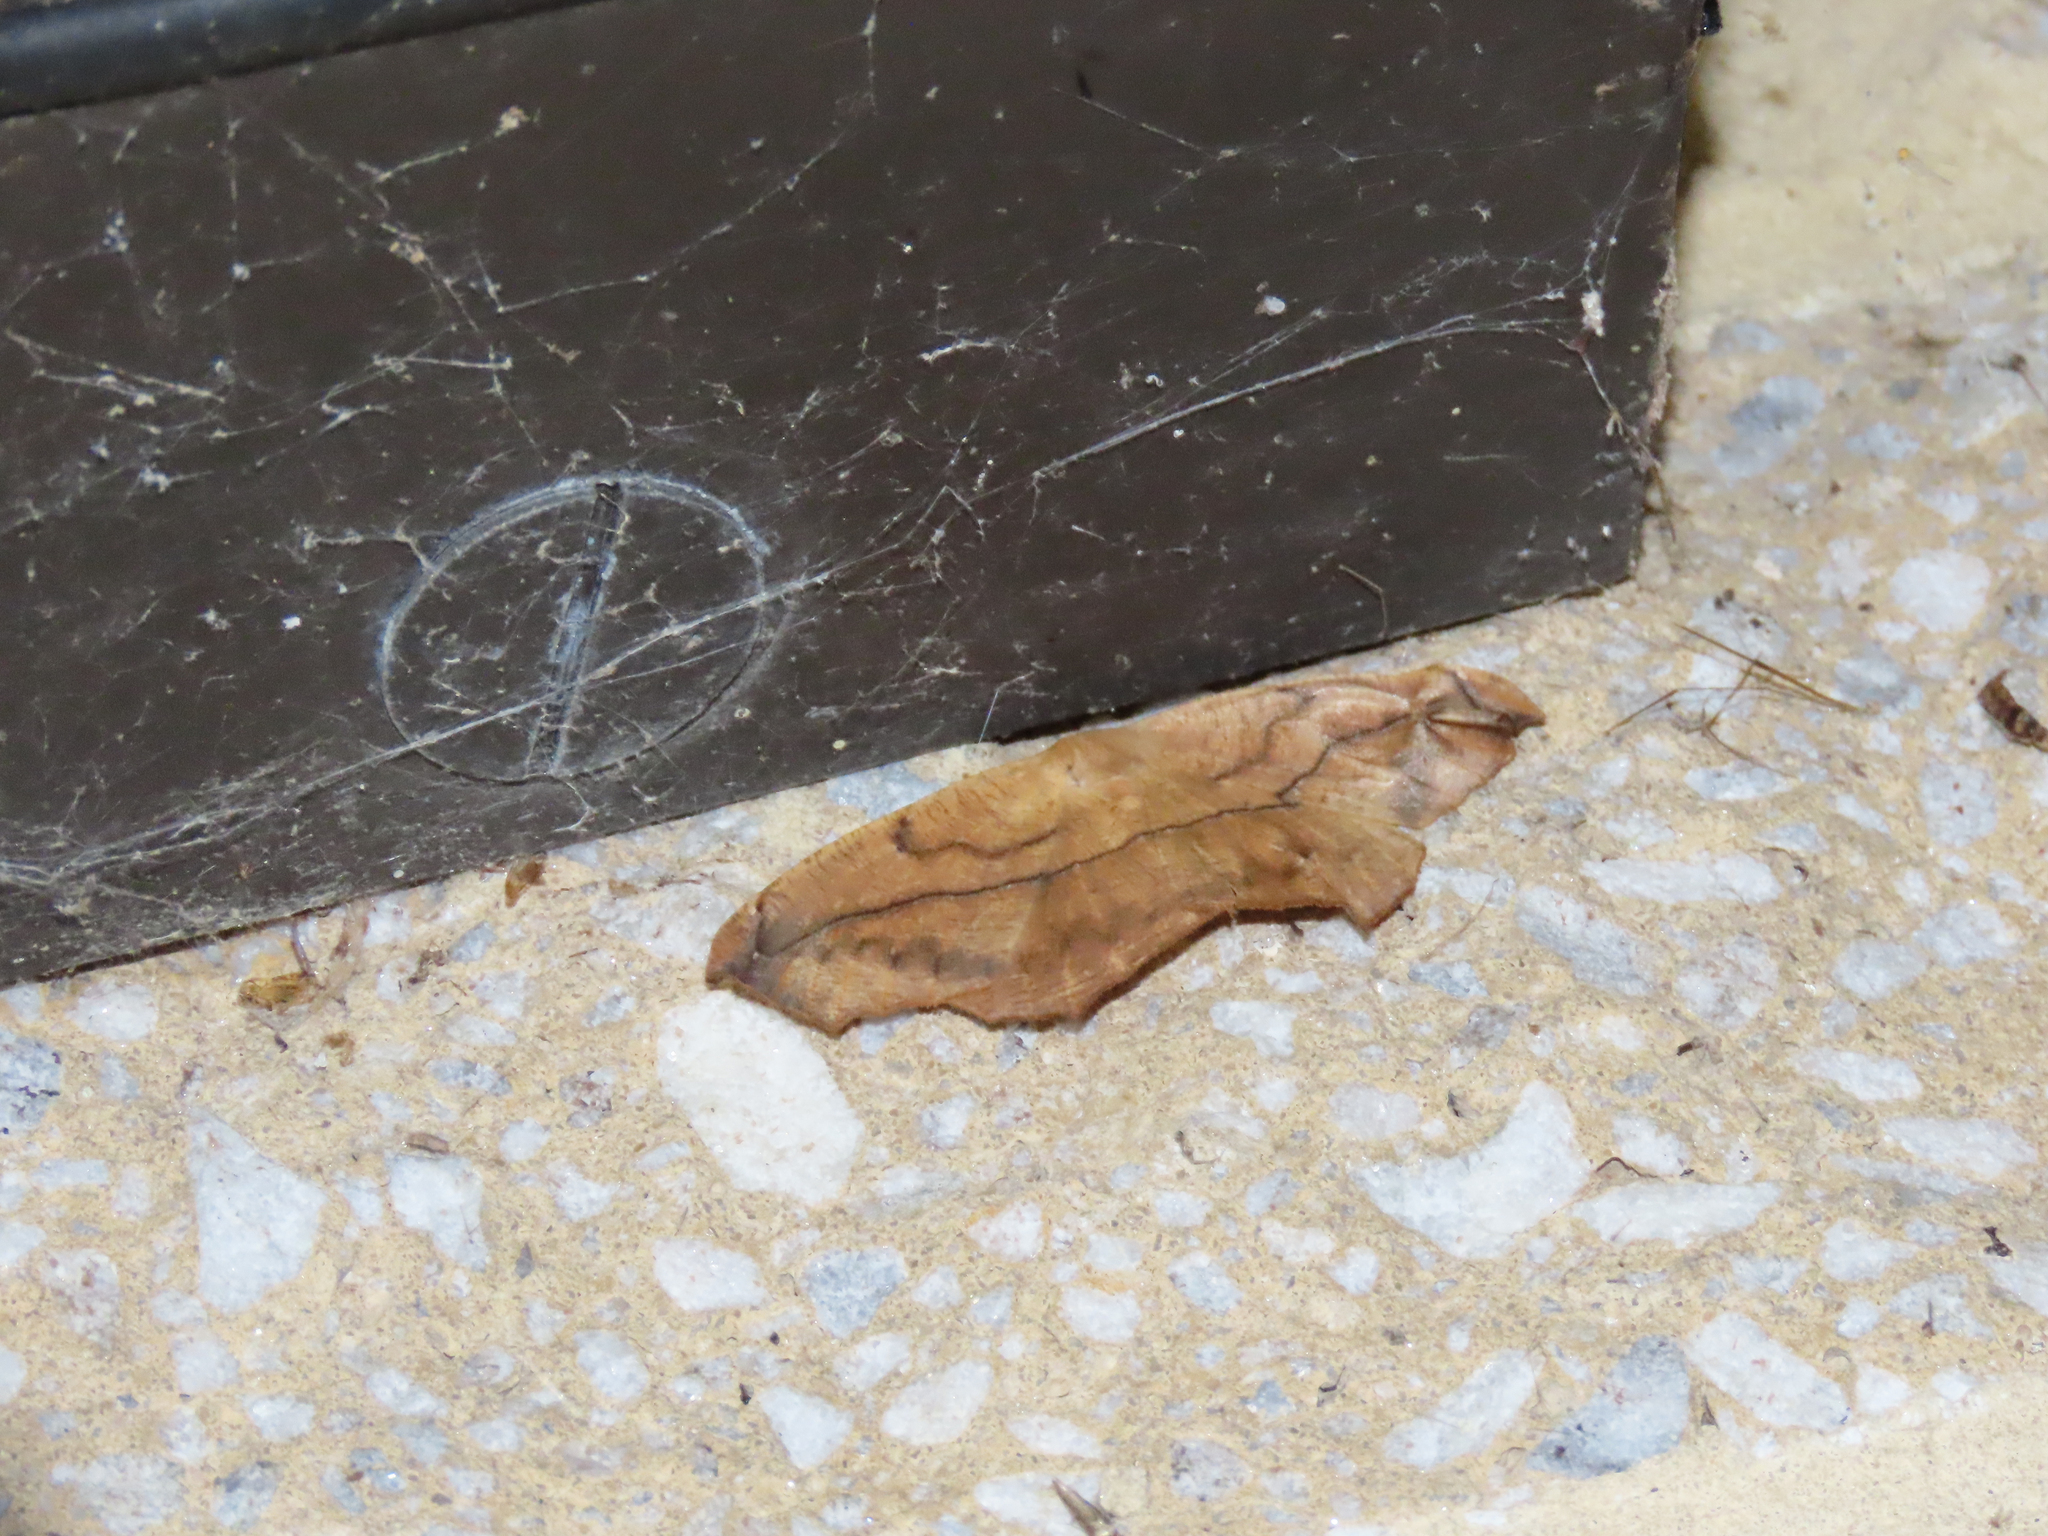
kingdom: Animalia
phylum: Arthropoda
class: Insecta
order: Lepidoptera
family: Geometridae
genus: Prochoerodes
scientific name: Prochoerodes lineola
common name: Large maple spanworm
